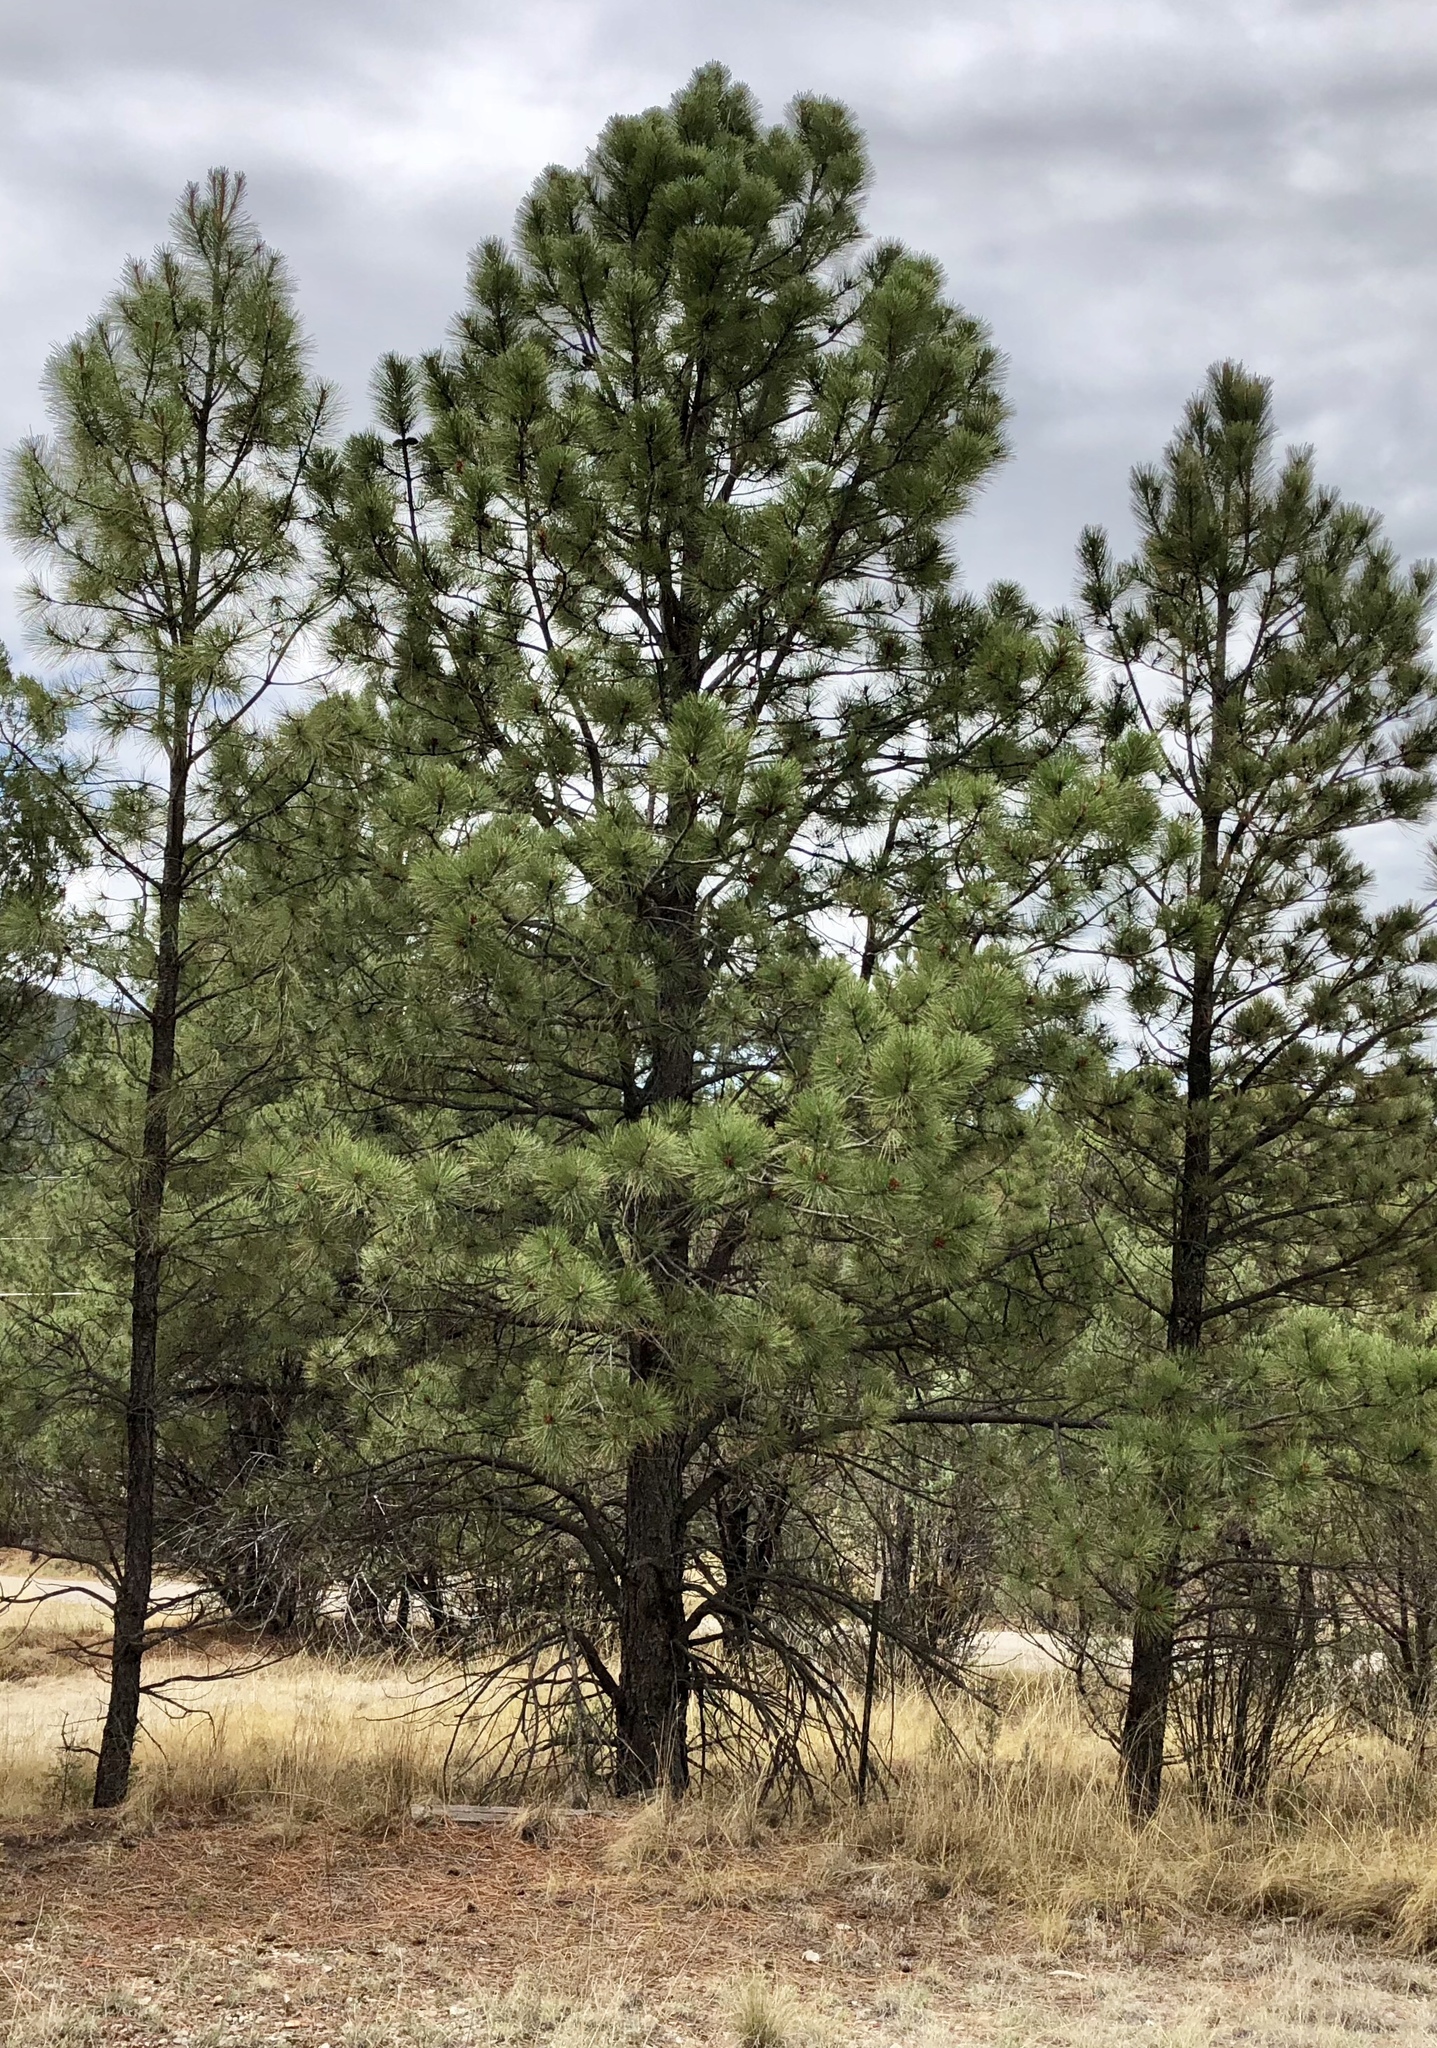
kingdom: Plantae
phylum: Tracheophyta
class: Pinopsida
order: Pinales
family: Pinaceae
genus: Pinus
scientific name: Pinus ponderosa
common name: Western yellow-pine
